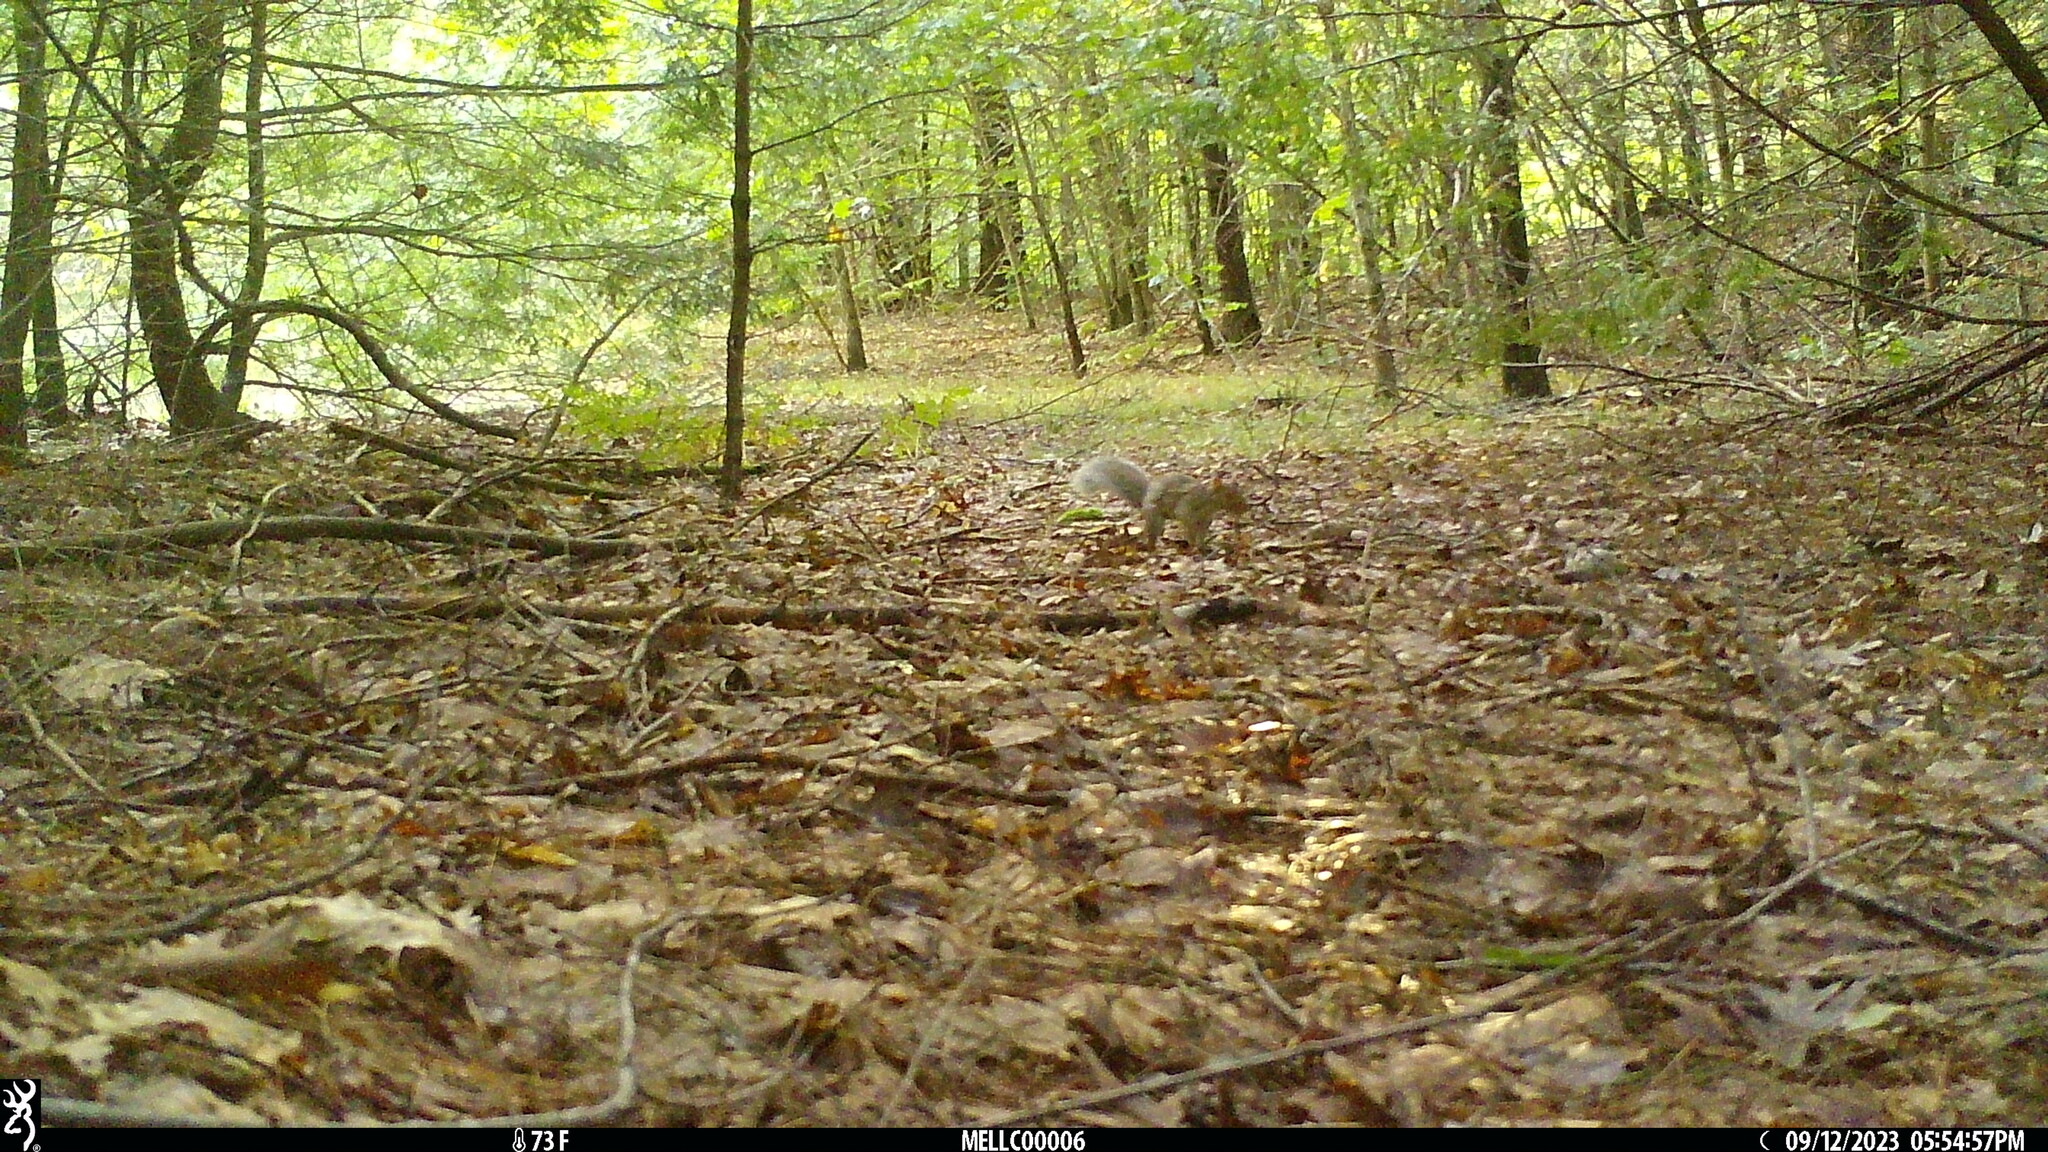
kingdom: Animalia
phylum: Chordata
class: Mammalia
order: Rodentia
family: Sciuridae
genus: Sciurus
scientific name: Sciurus carolinensis
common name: Eastern gray squirrel
